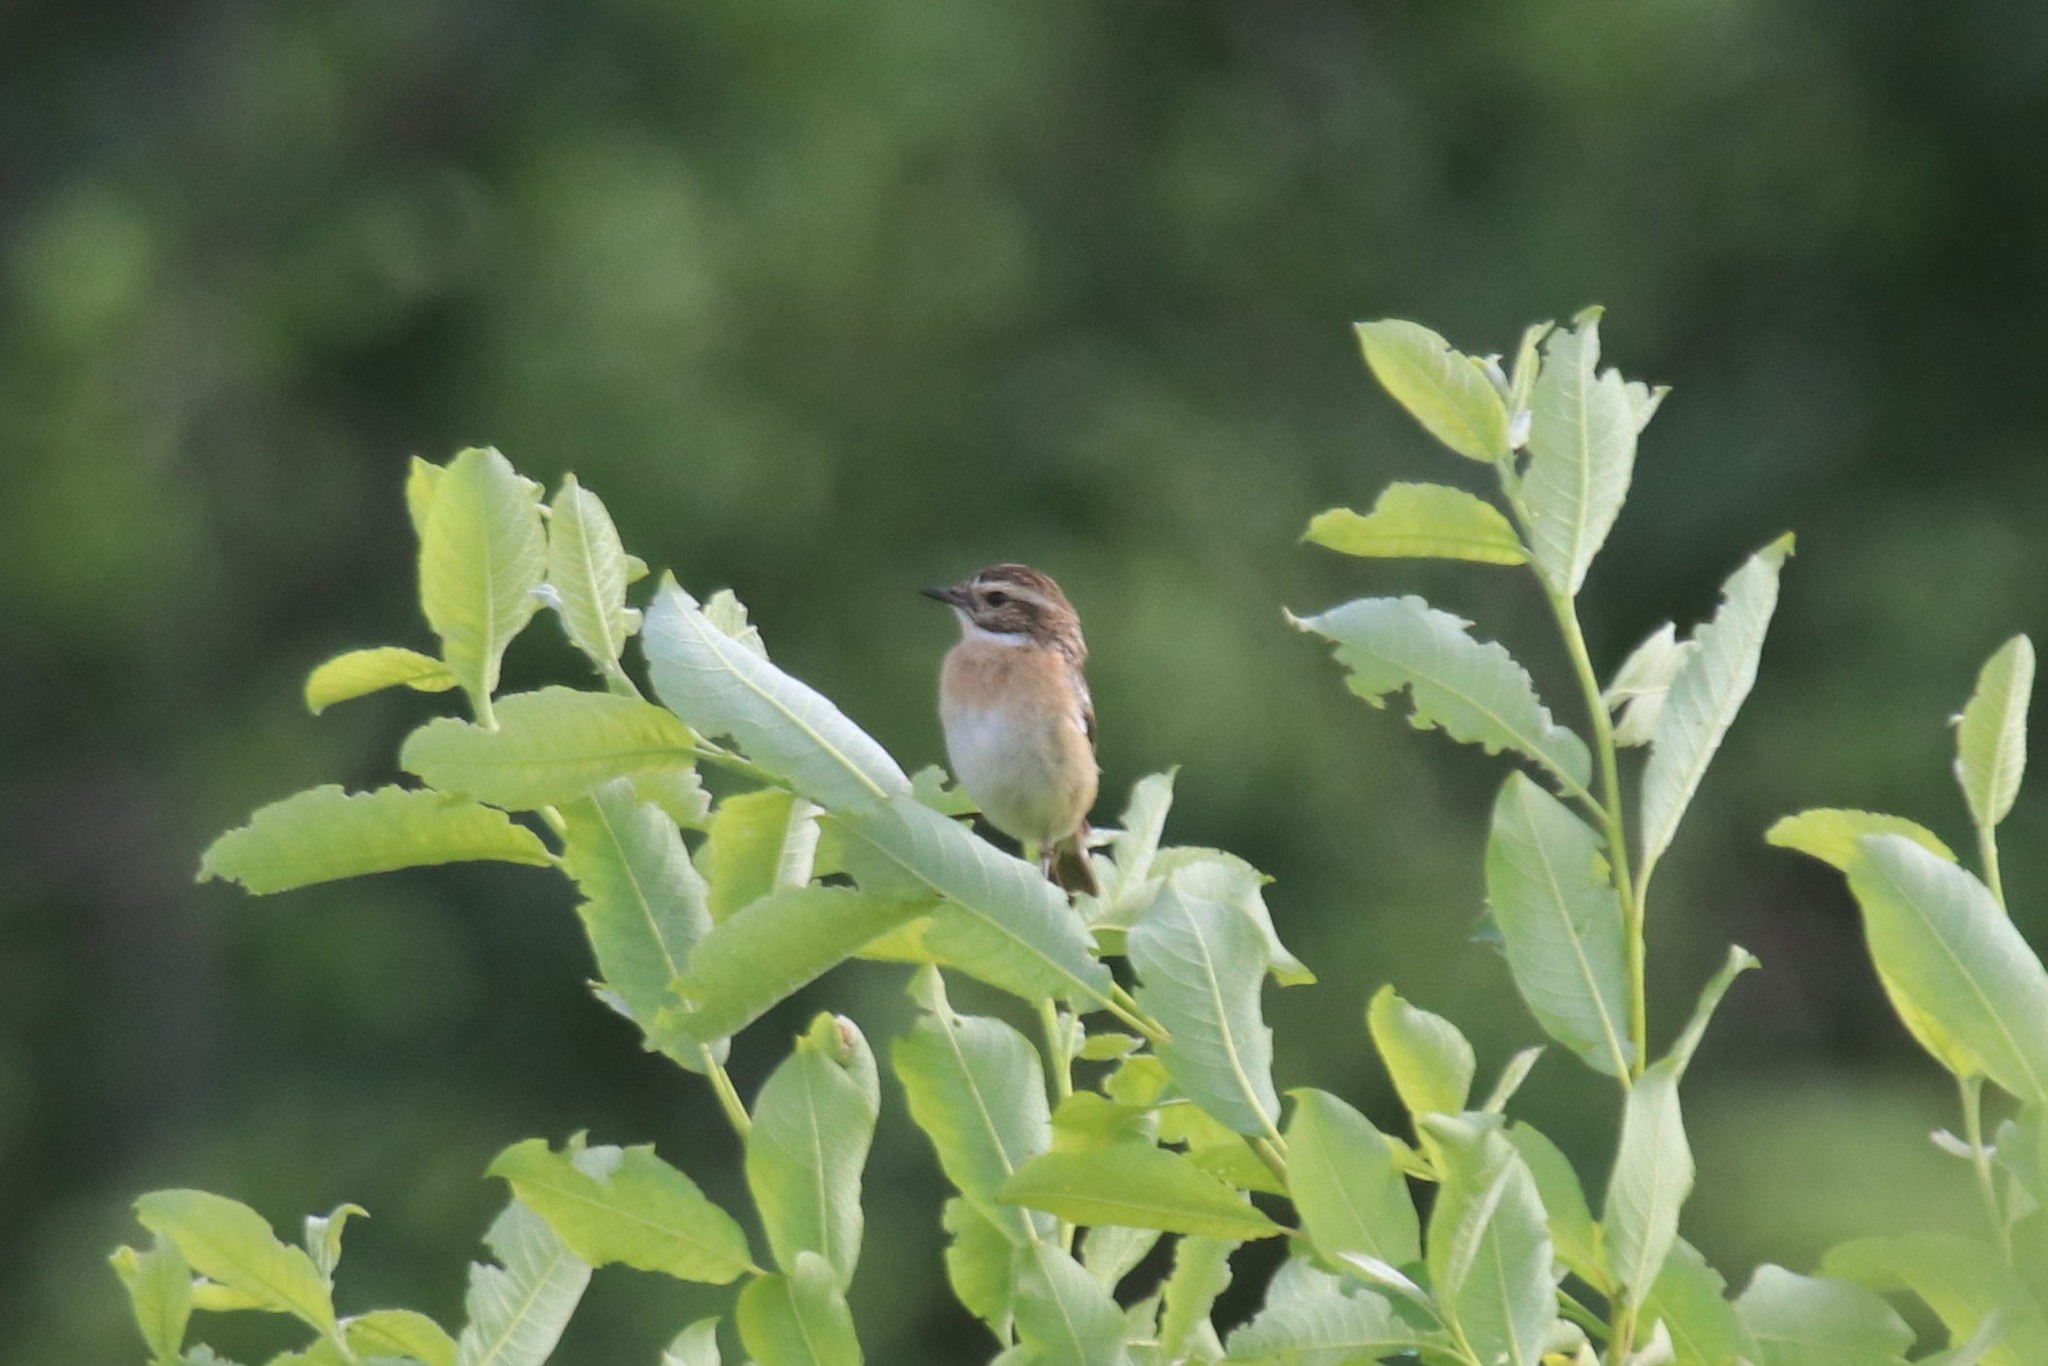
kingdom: Animalia
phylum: Chordata
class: Aves
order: Passeriformes
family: Muscicapidae
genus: Saxicola
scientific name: Saxicola rubetra
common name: Whinchat
